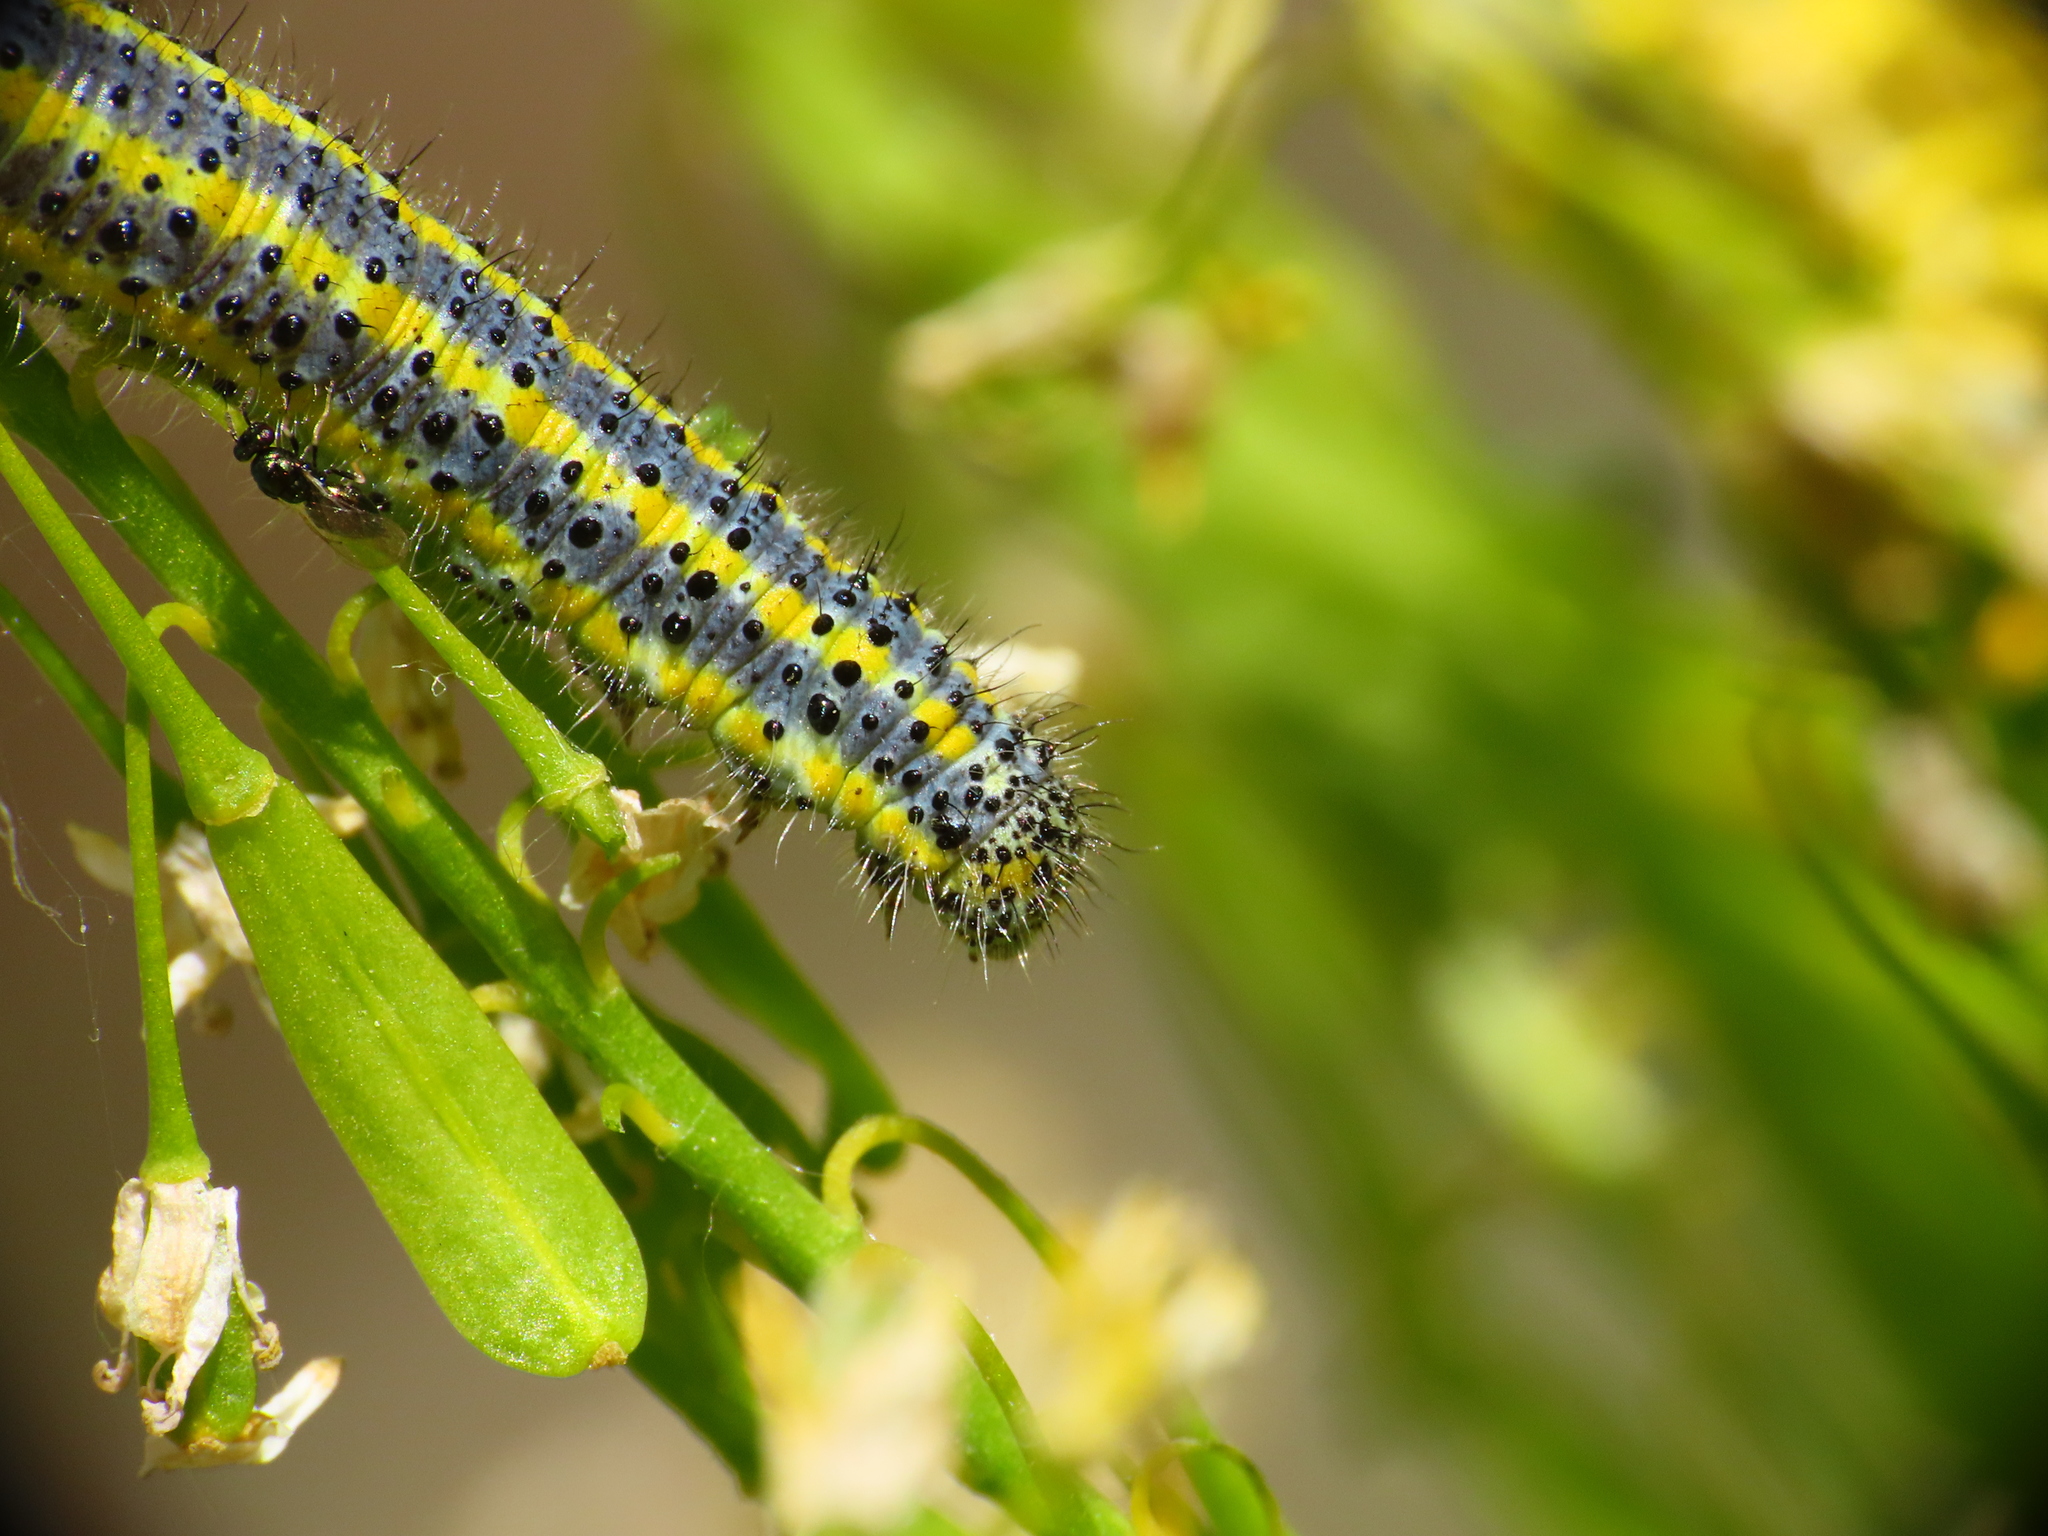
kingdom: Animalia
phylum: Arthropoda
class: Insecta
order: Lepidoptera
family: Pieridae
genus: Pontia
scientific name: Pontia edusa
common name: Eastern bath white
